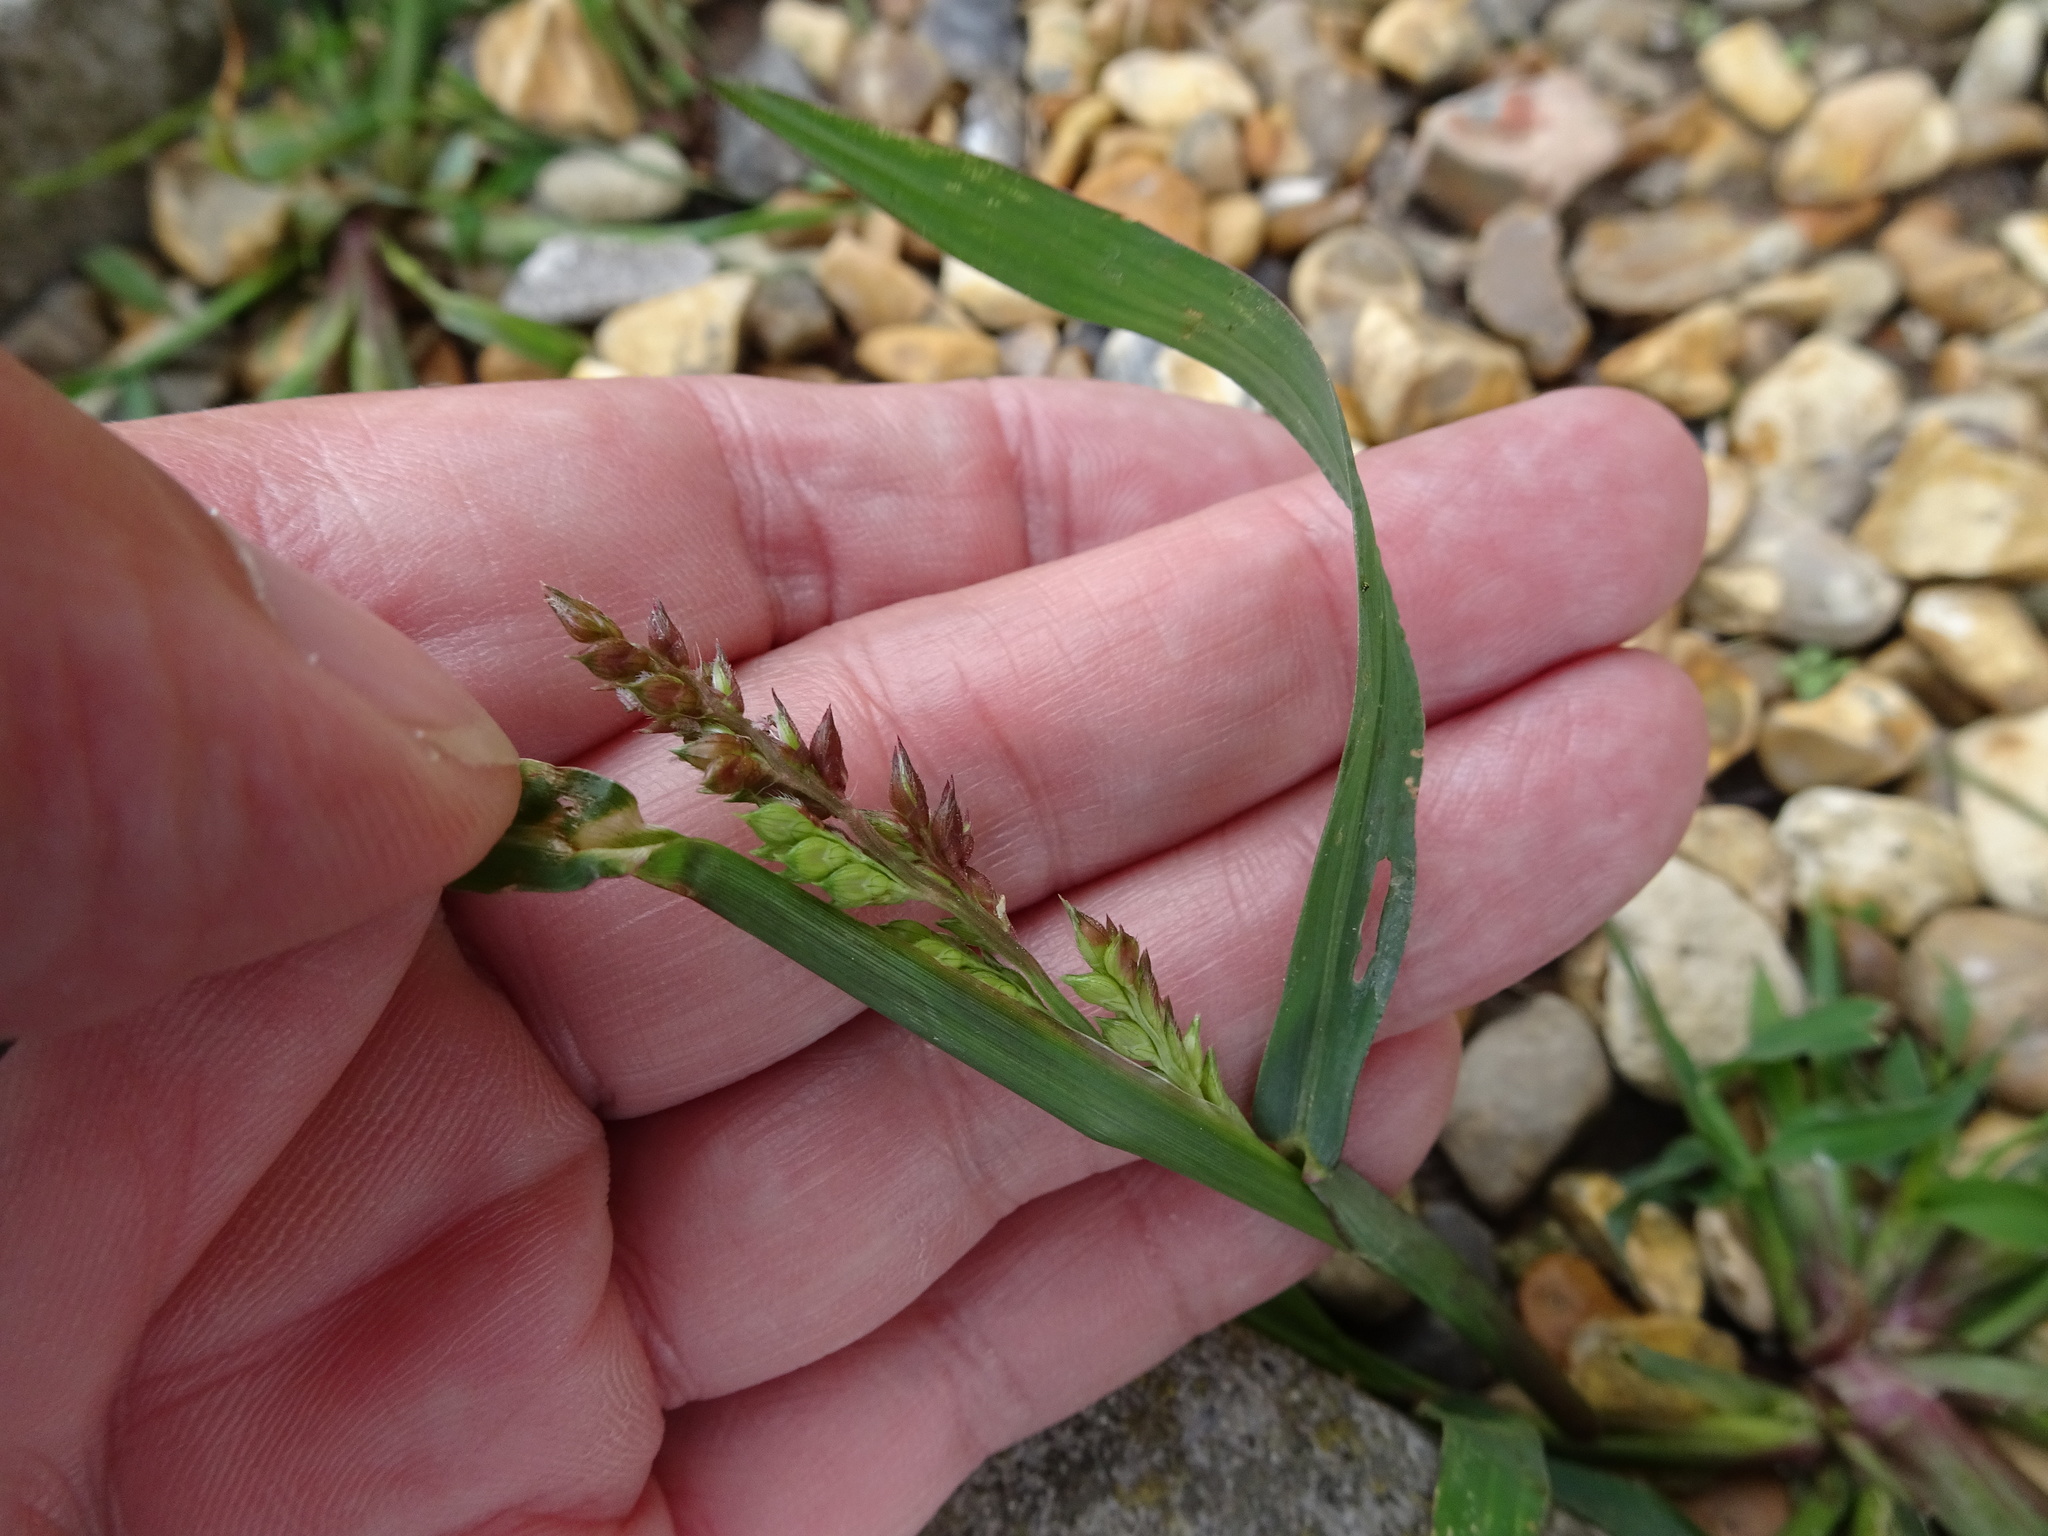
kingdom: Plantae
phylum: Tracheophyta
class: Liliopsida
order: Poales
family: Poaceae
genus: Echinochloa
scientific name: Echinochloa crus-galli
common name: Cockspur
